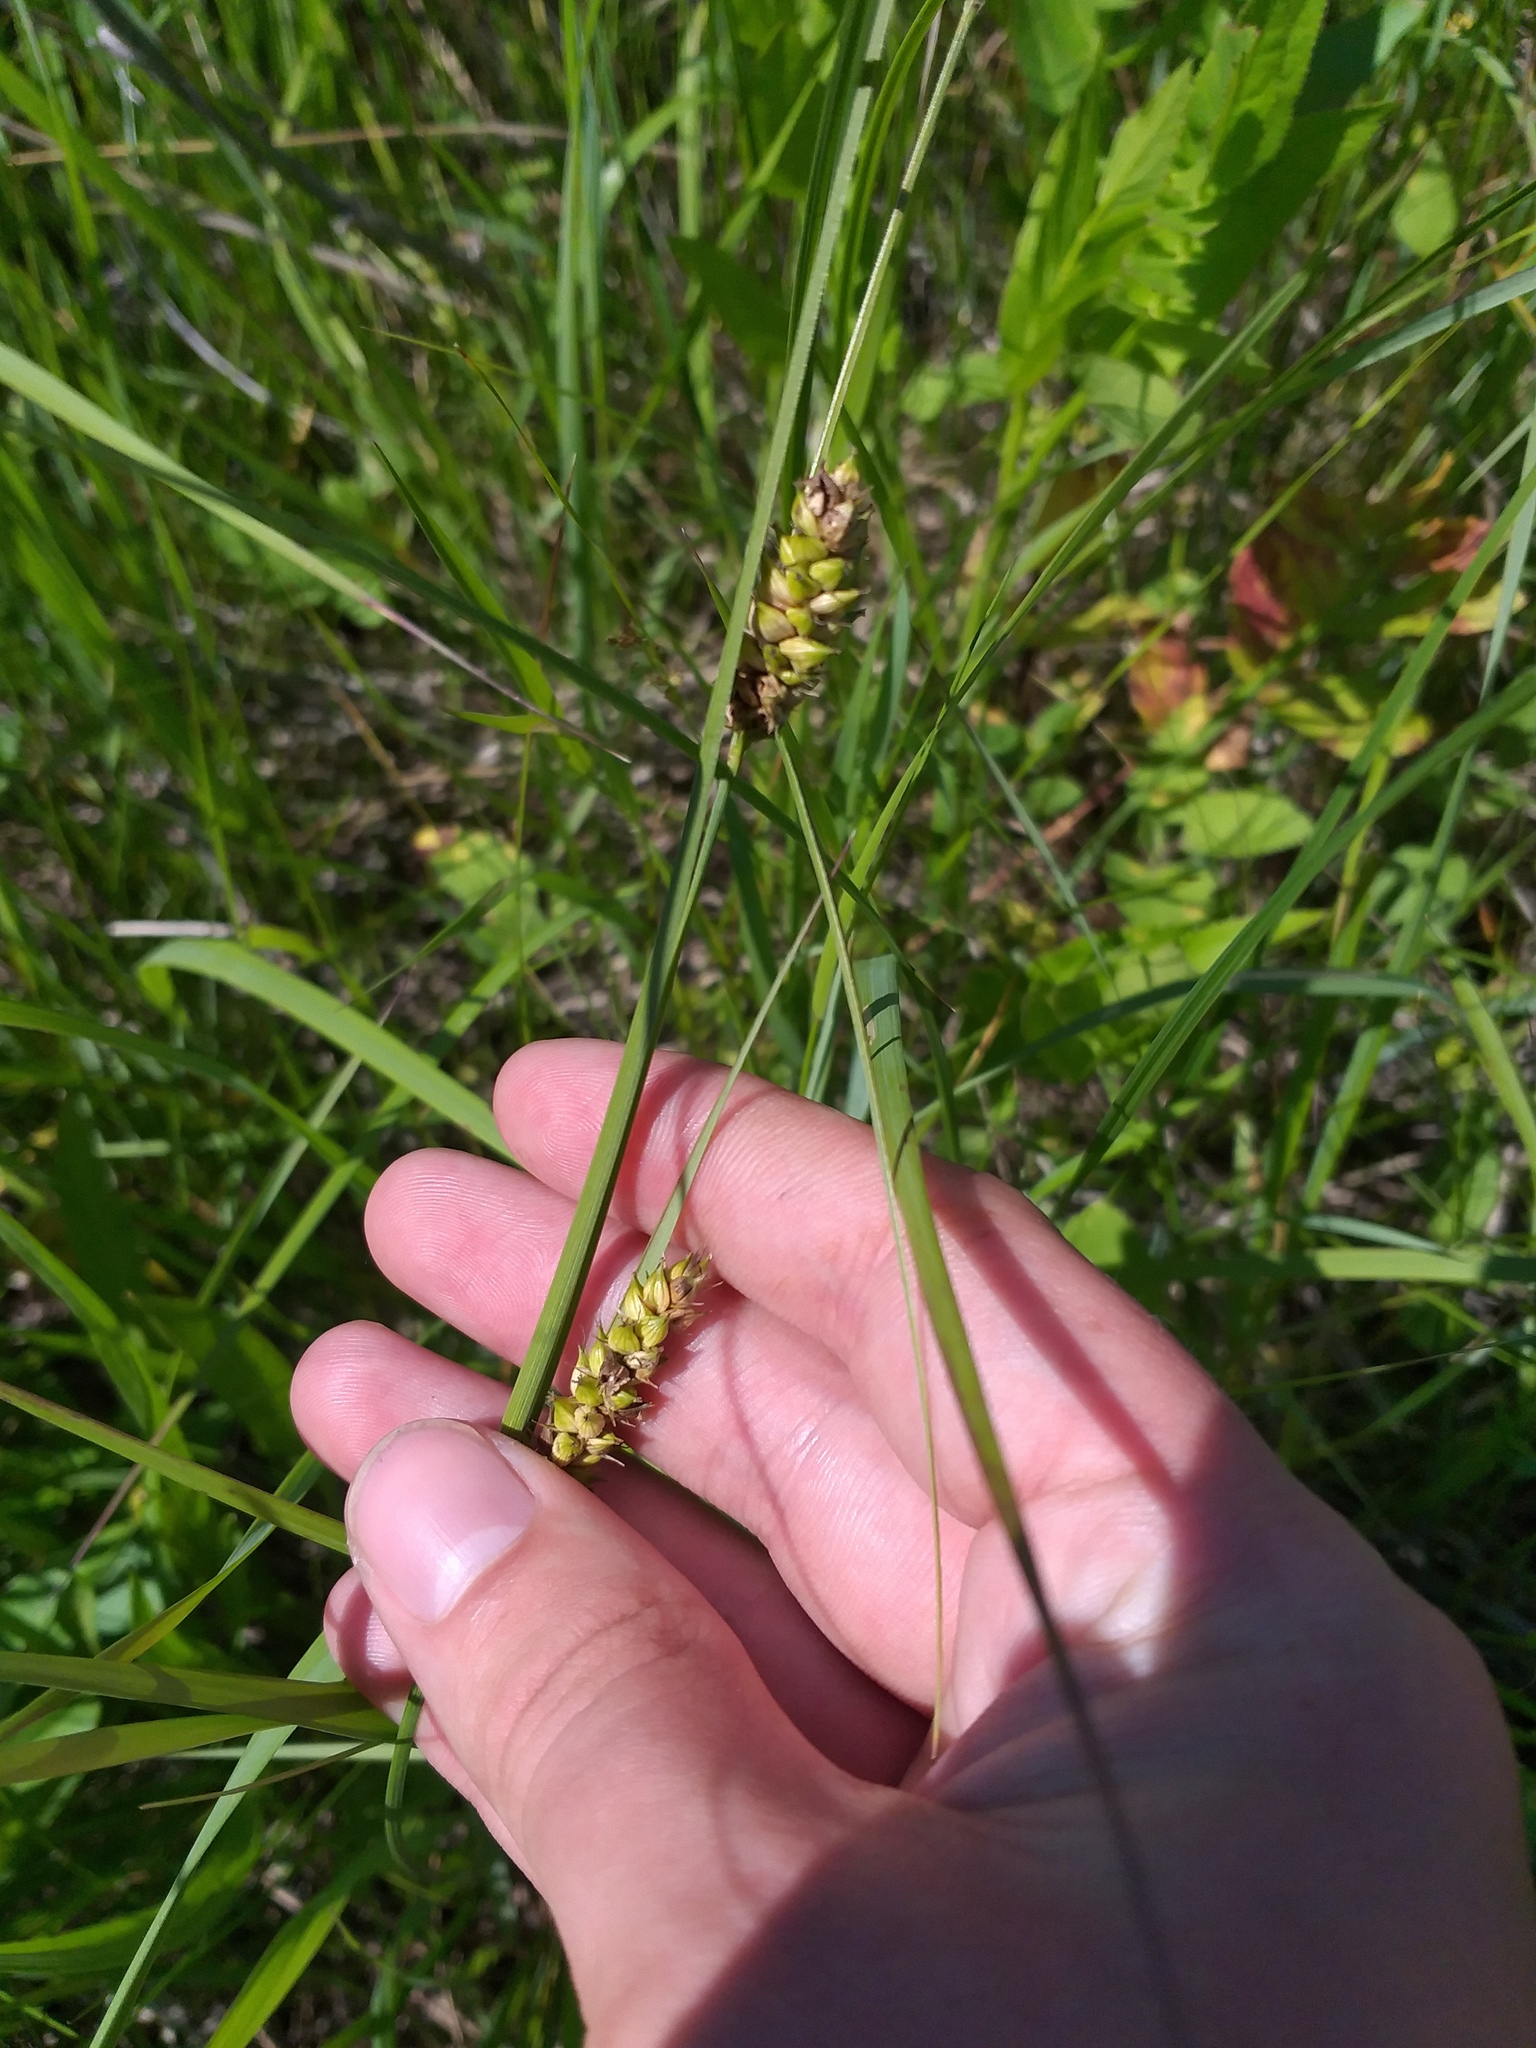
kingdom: Plantae
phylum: Tracheophyta
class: Liliopsida
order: Poales
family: Cyperaceae
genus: Carex
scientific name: Carex melanostachya
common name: Black-spiked sedge
